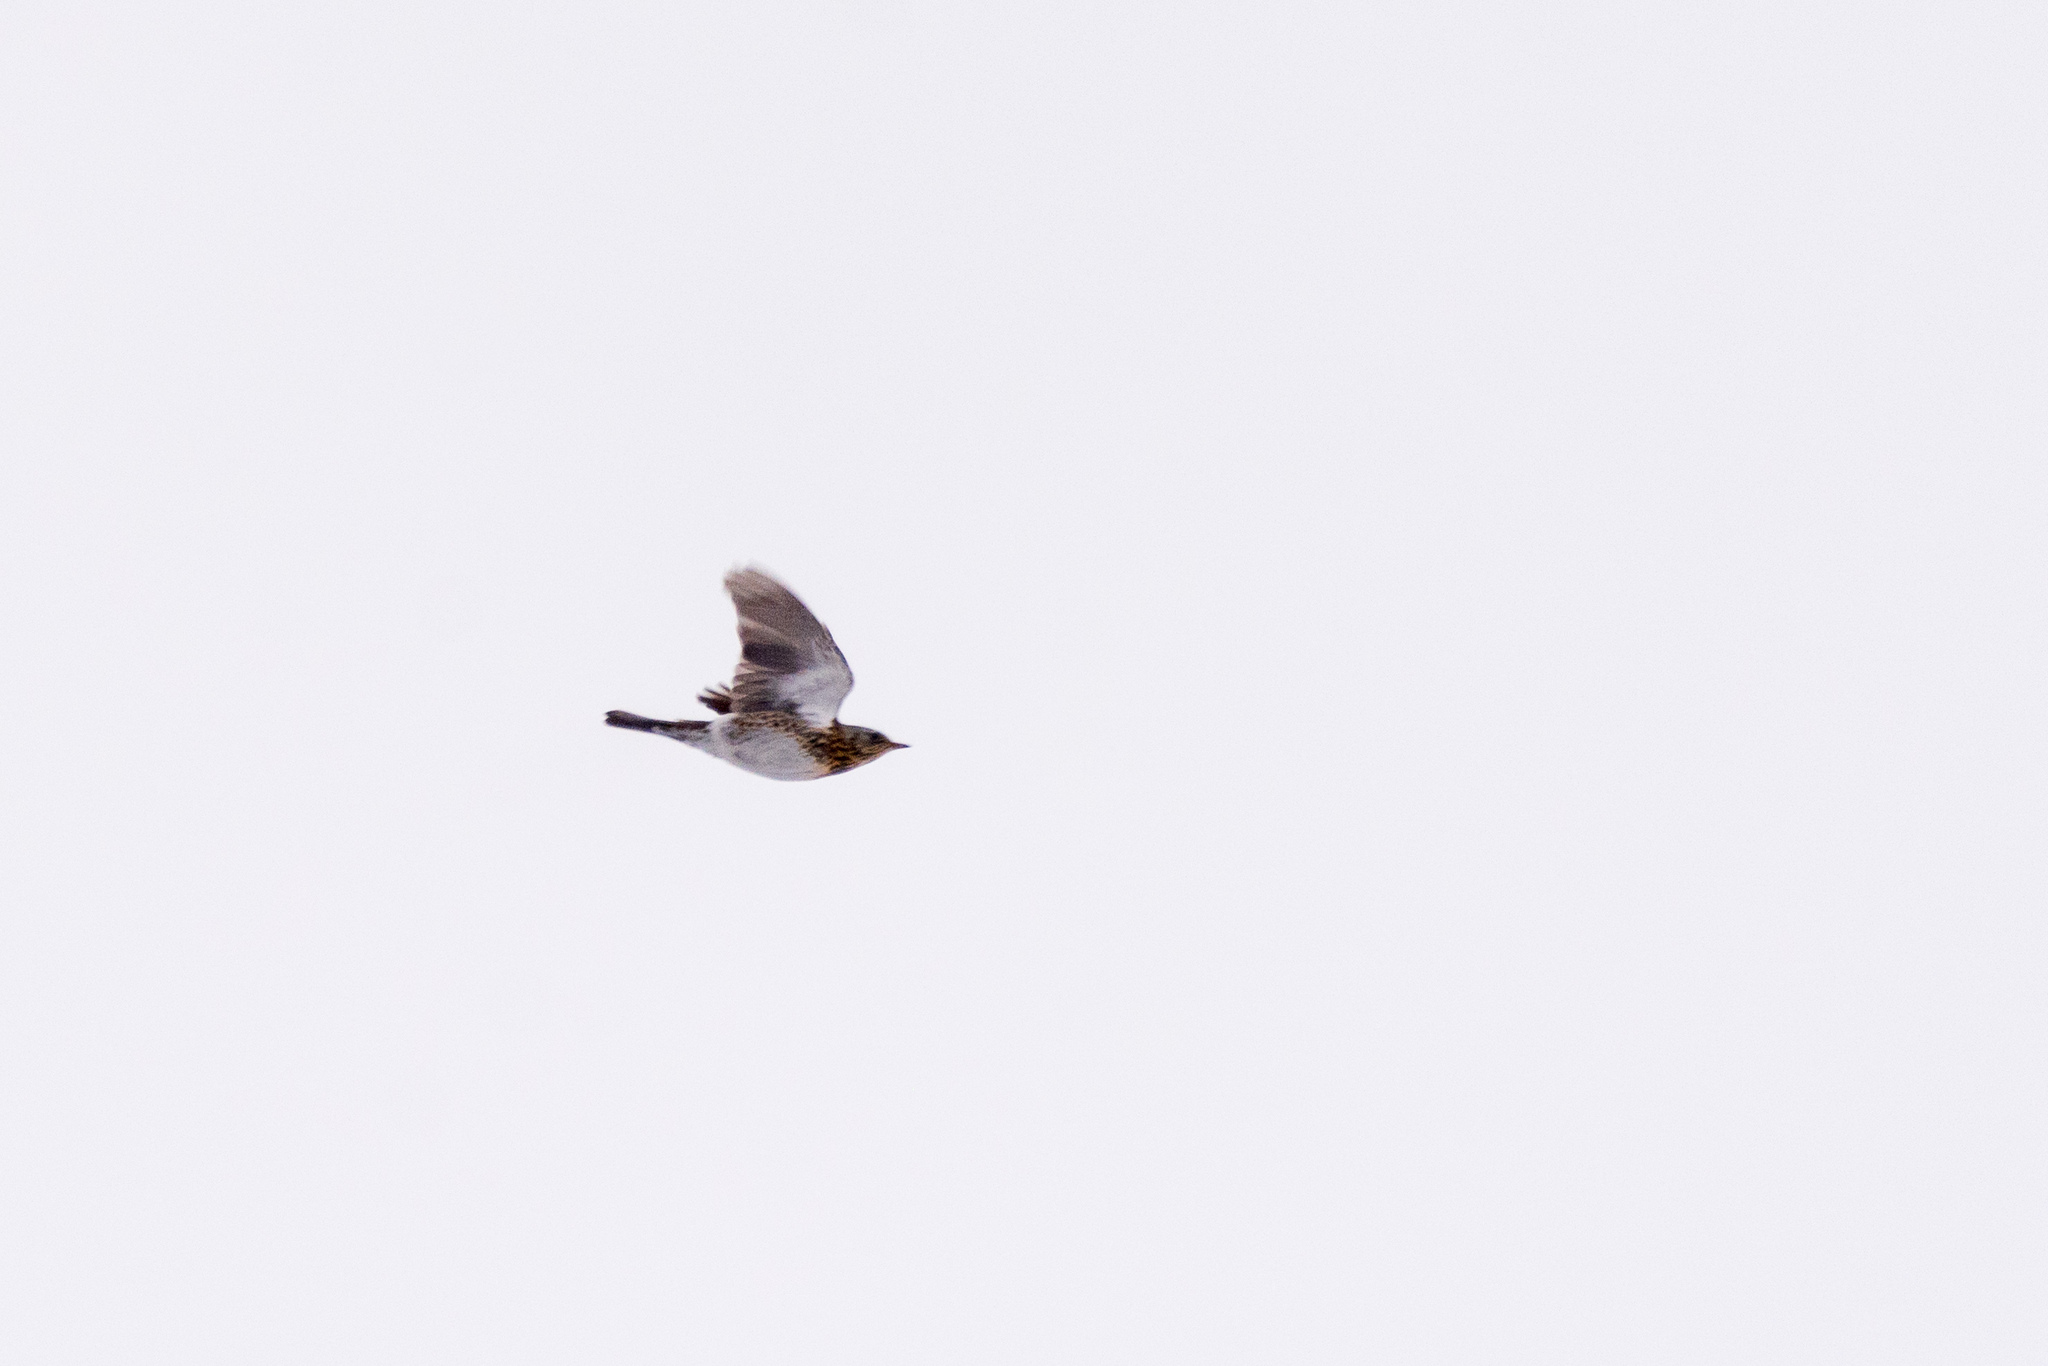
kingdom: Animalia
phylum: Chordata
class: Aves
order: Passeriformes
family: Turdidae
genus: Turdus
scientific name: Turdus pilaris
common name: Fieldfare
